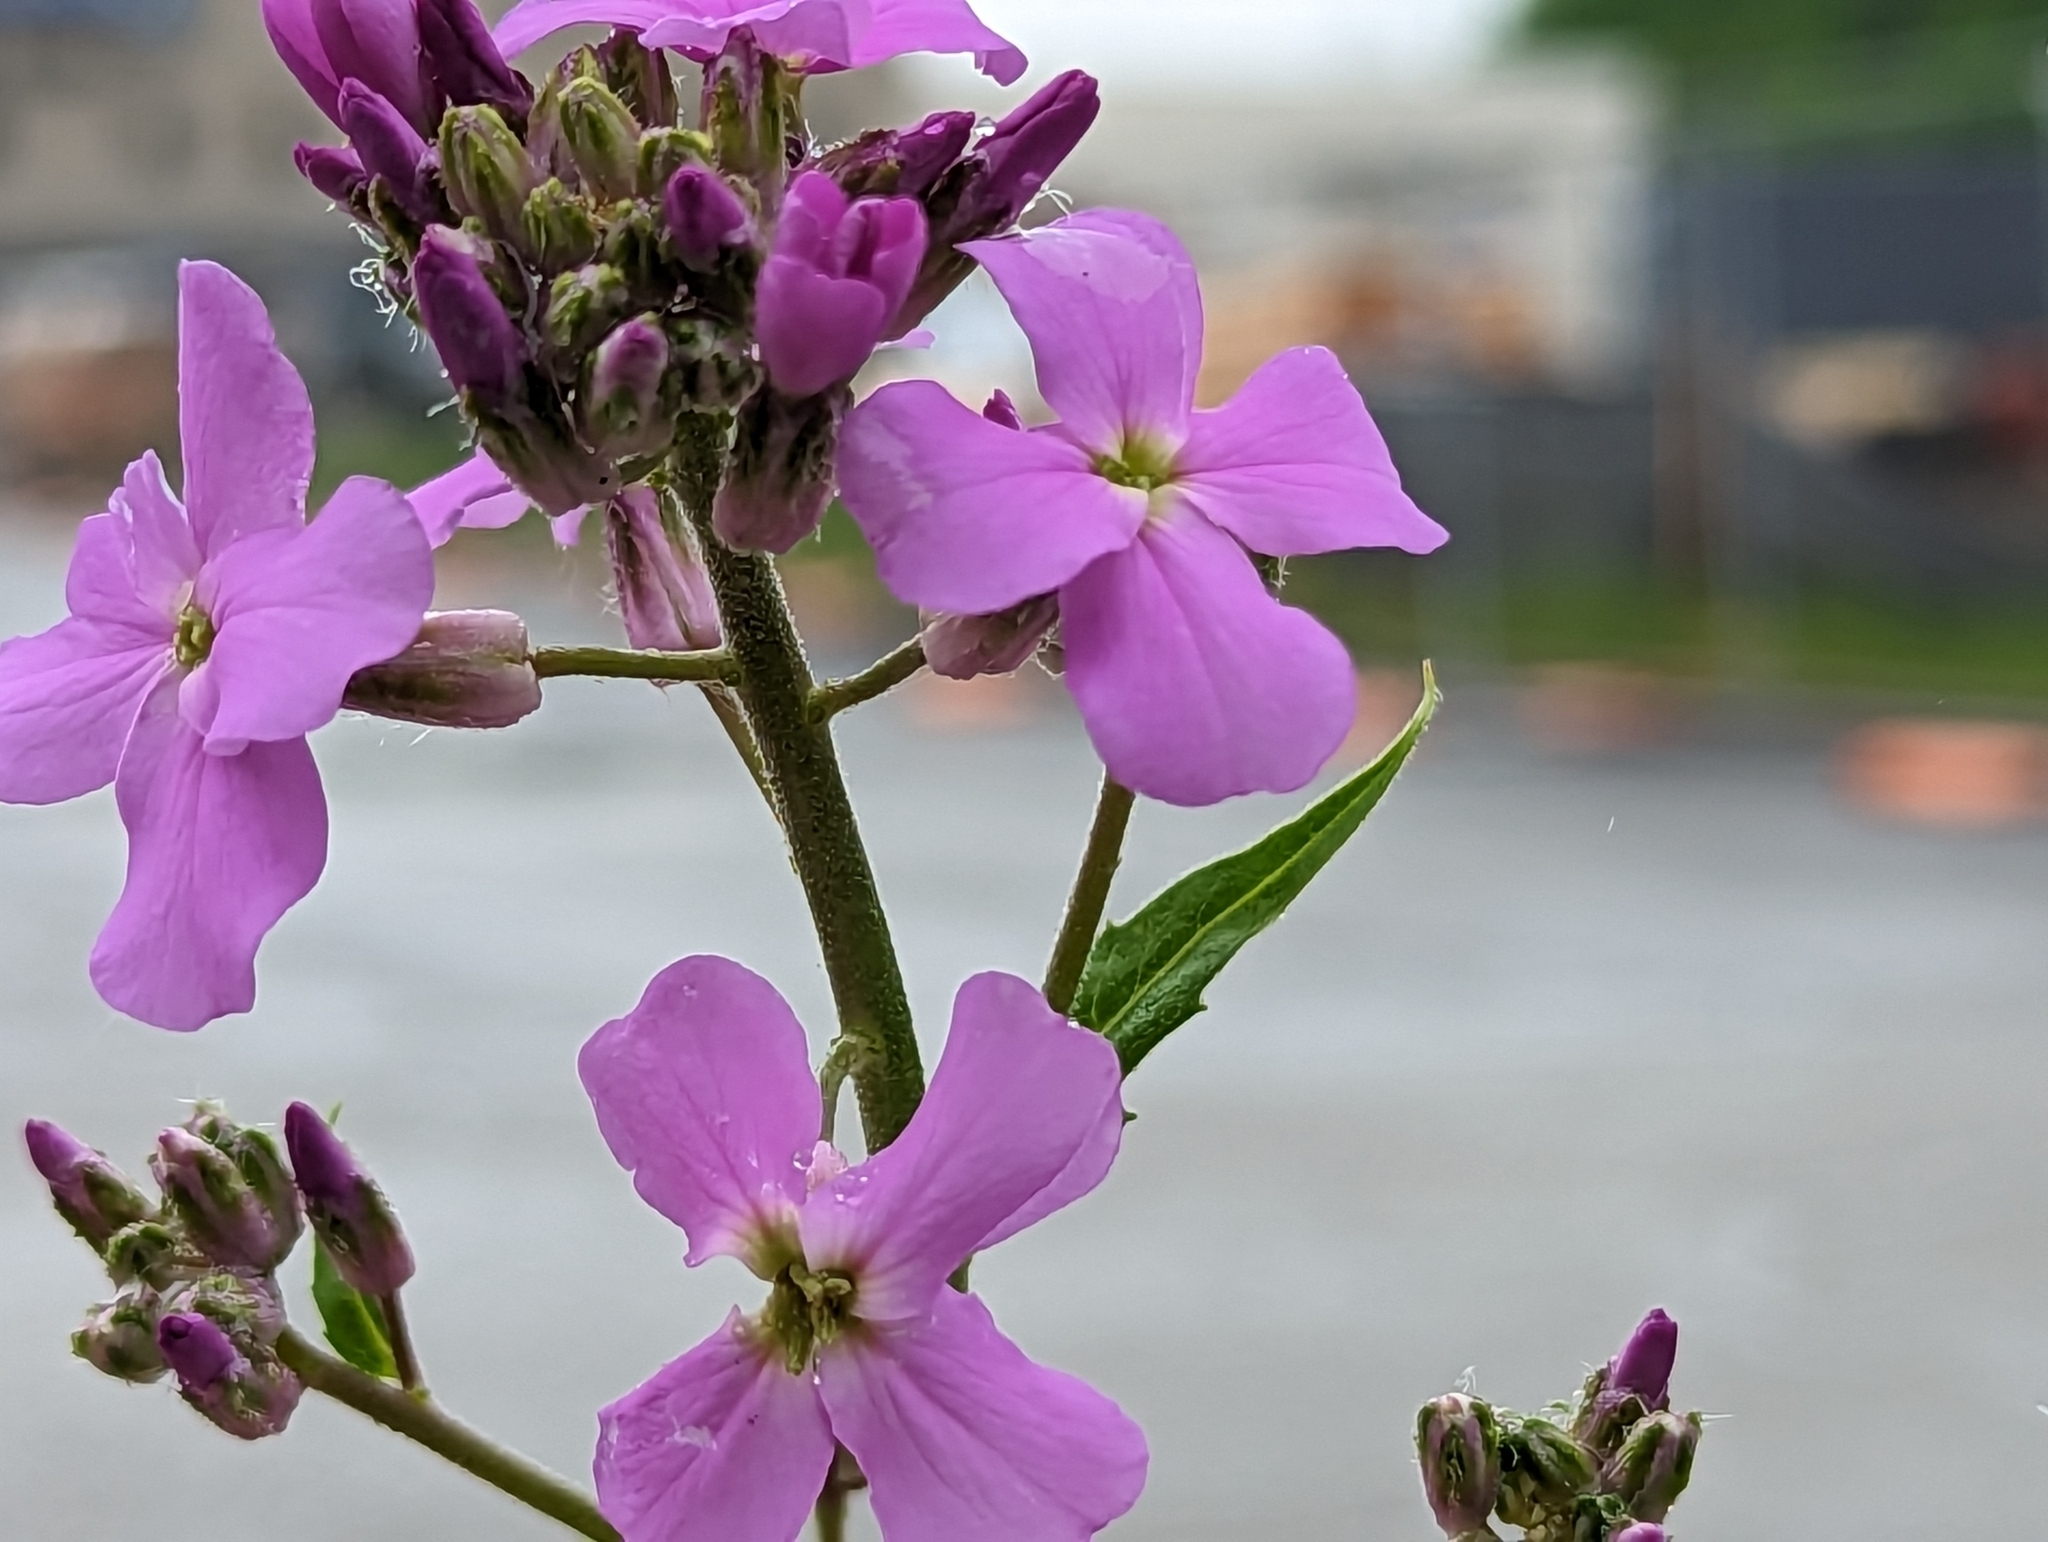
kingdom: Plantae
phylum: Tracheophyta
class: Magnoliopsida
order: Brassicales
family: Brassicaceae
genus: Hesperis
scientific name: Hesperis matronalis
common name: Dame's-violet
